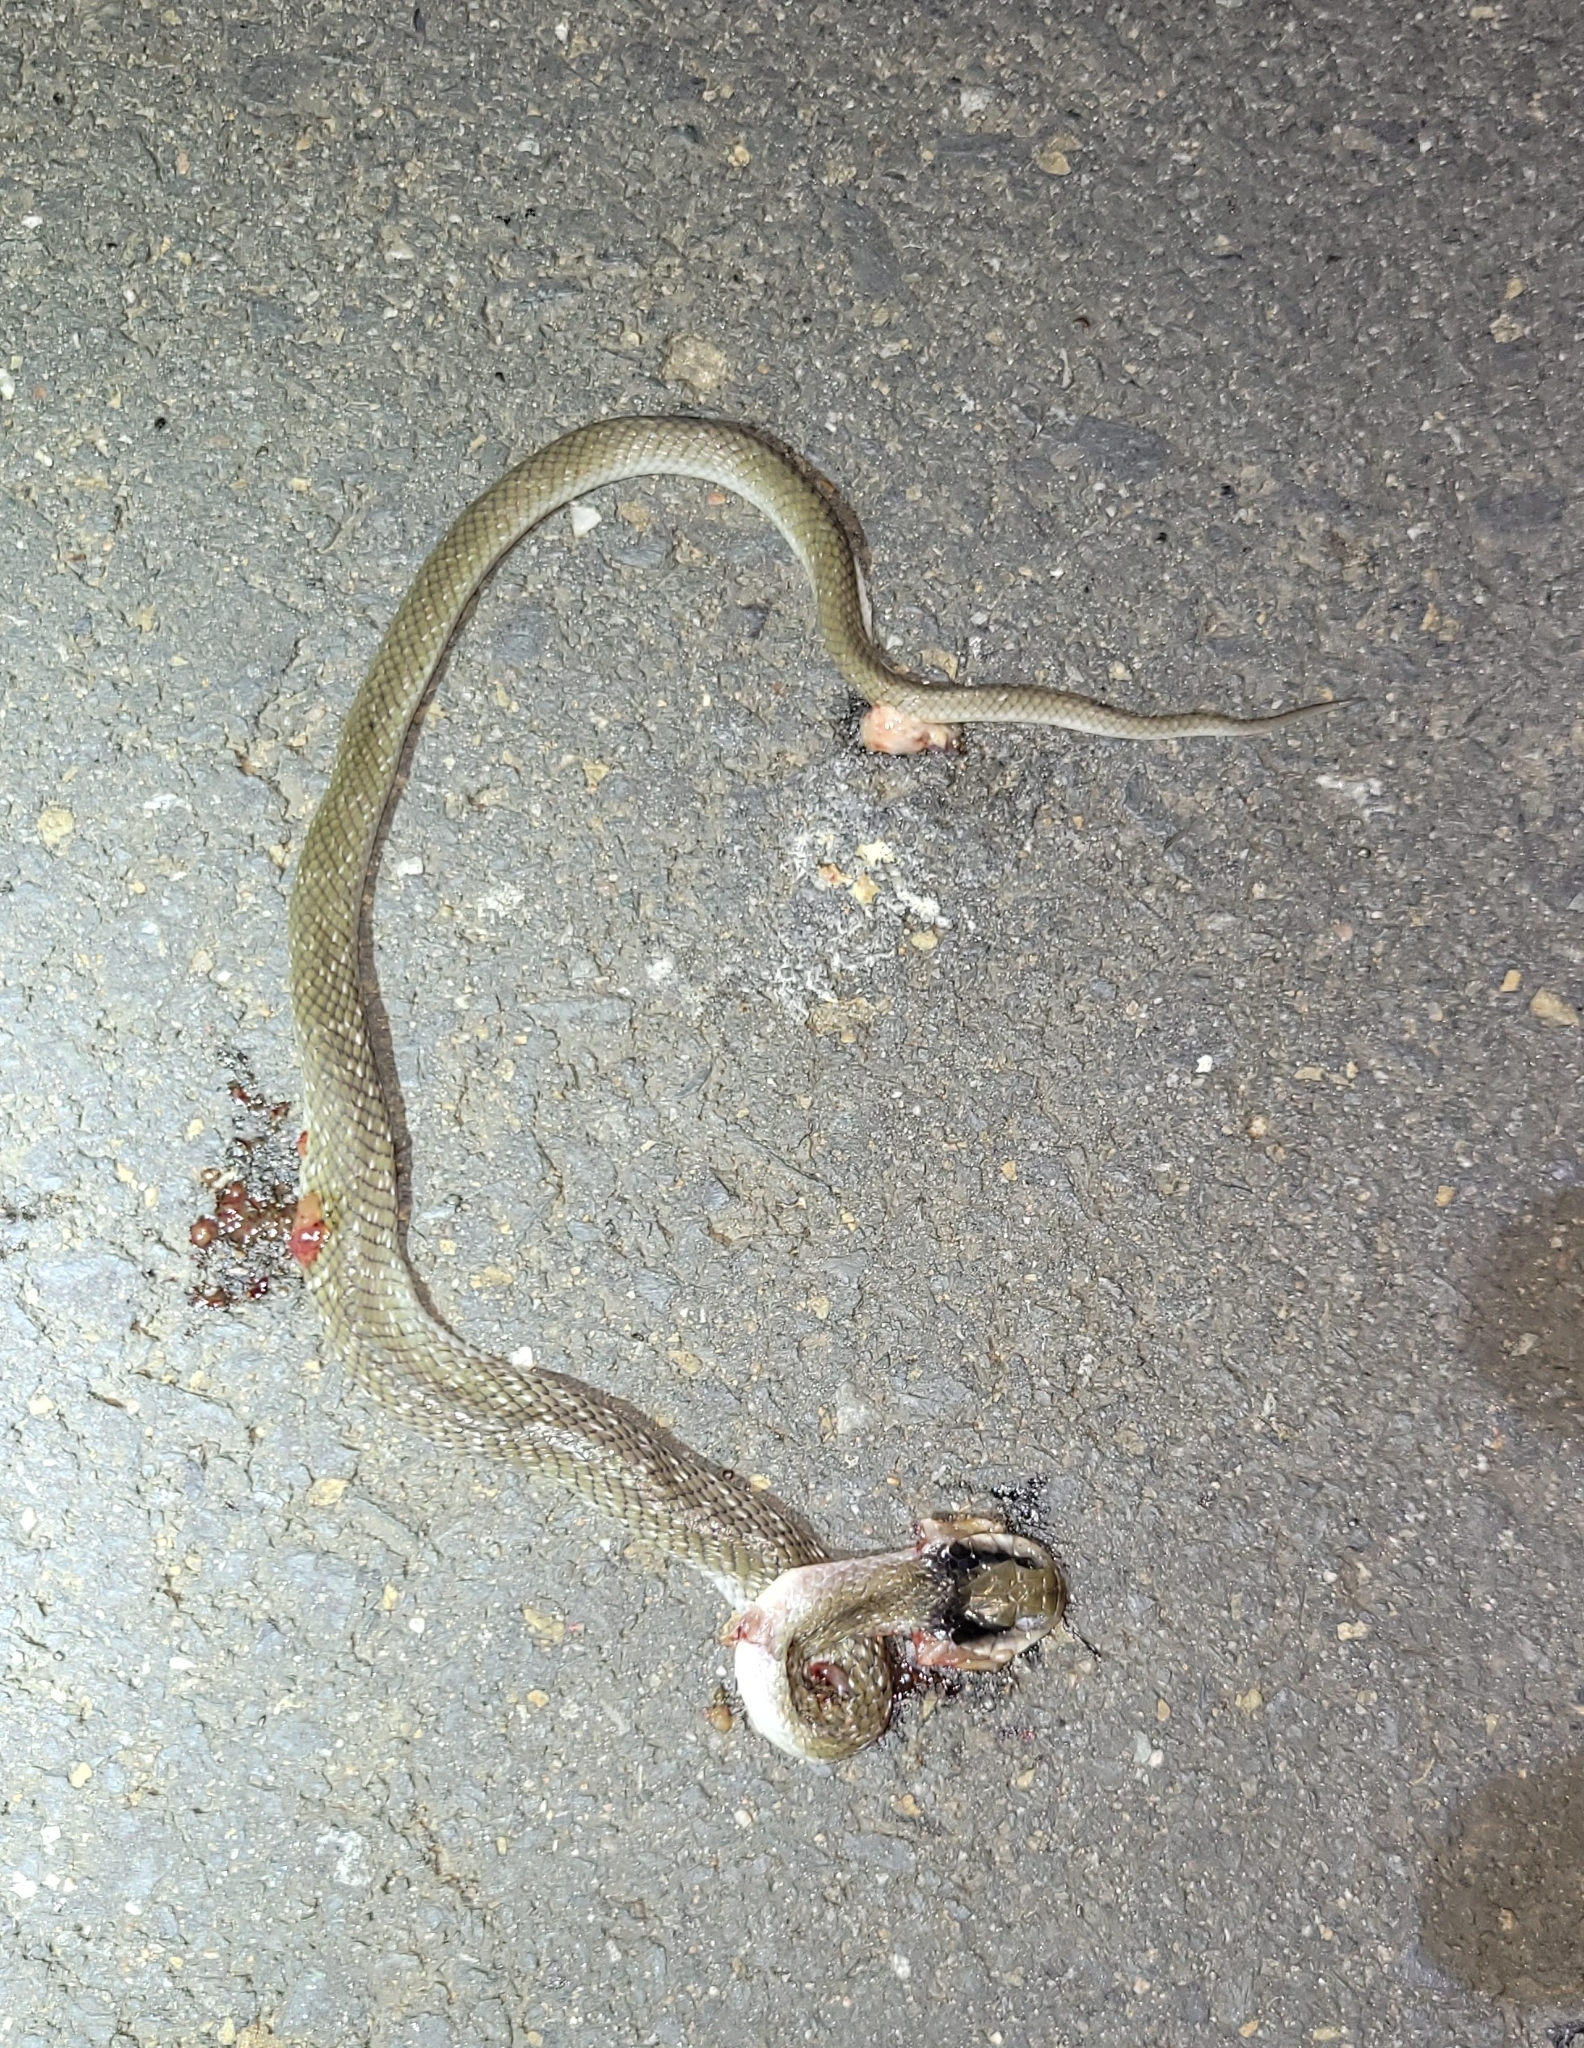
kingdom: Animalia
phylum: Chordata
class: Squamata
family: Colubridae
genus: Crotaphopeltis
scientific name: Crotaphopeltis hotamboeia
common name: Red-lipped snake
